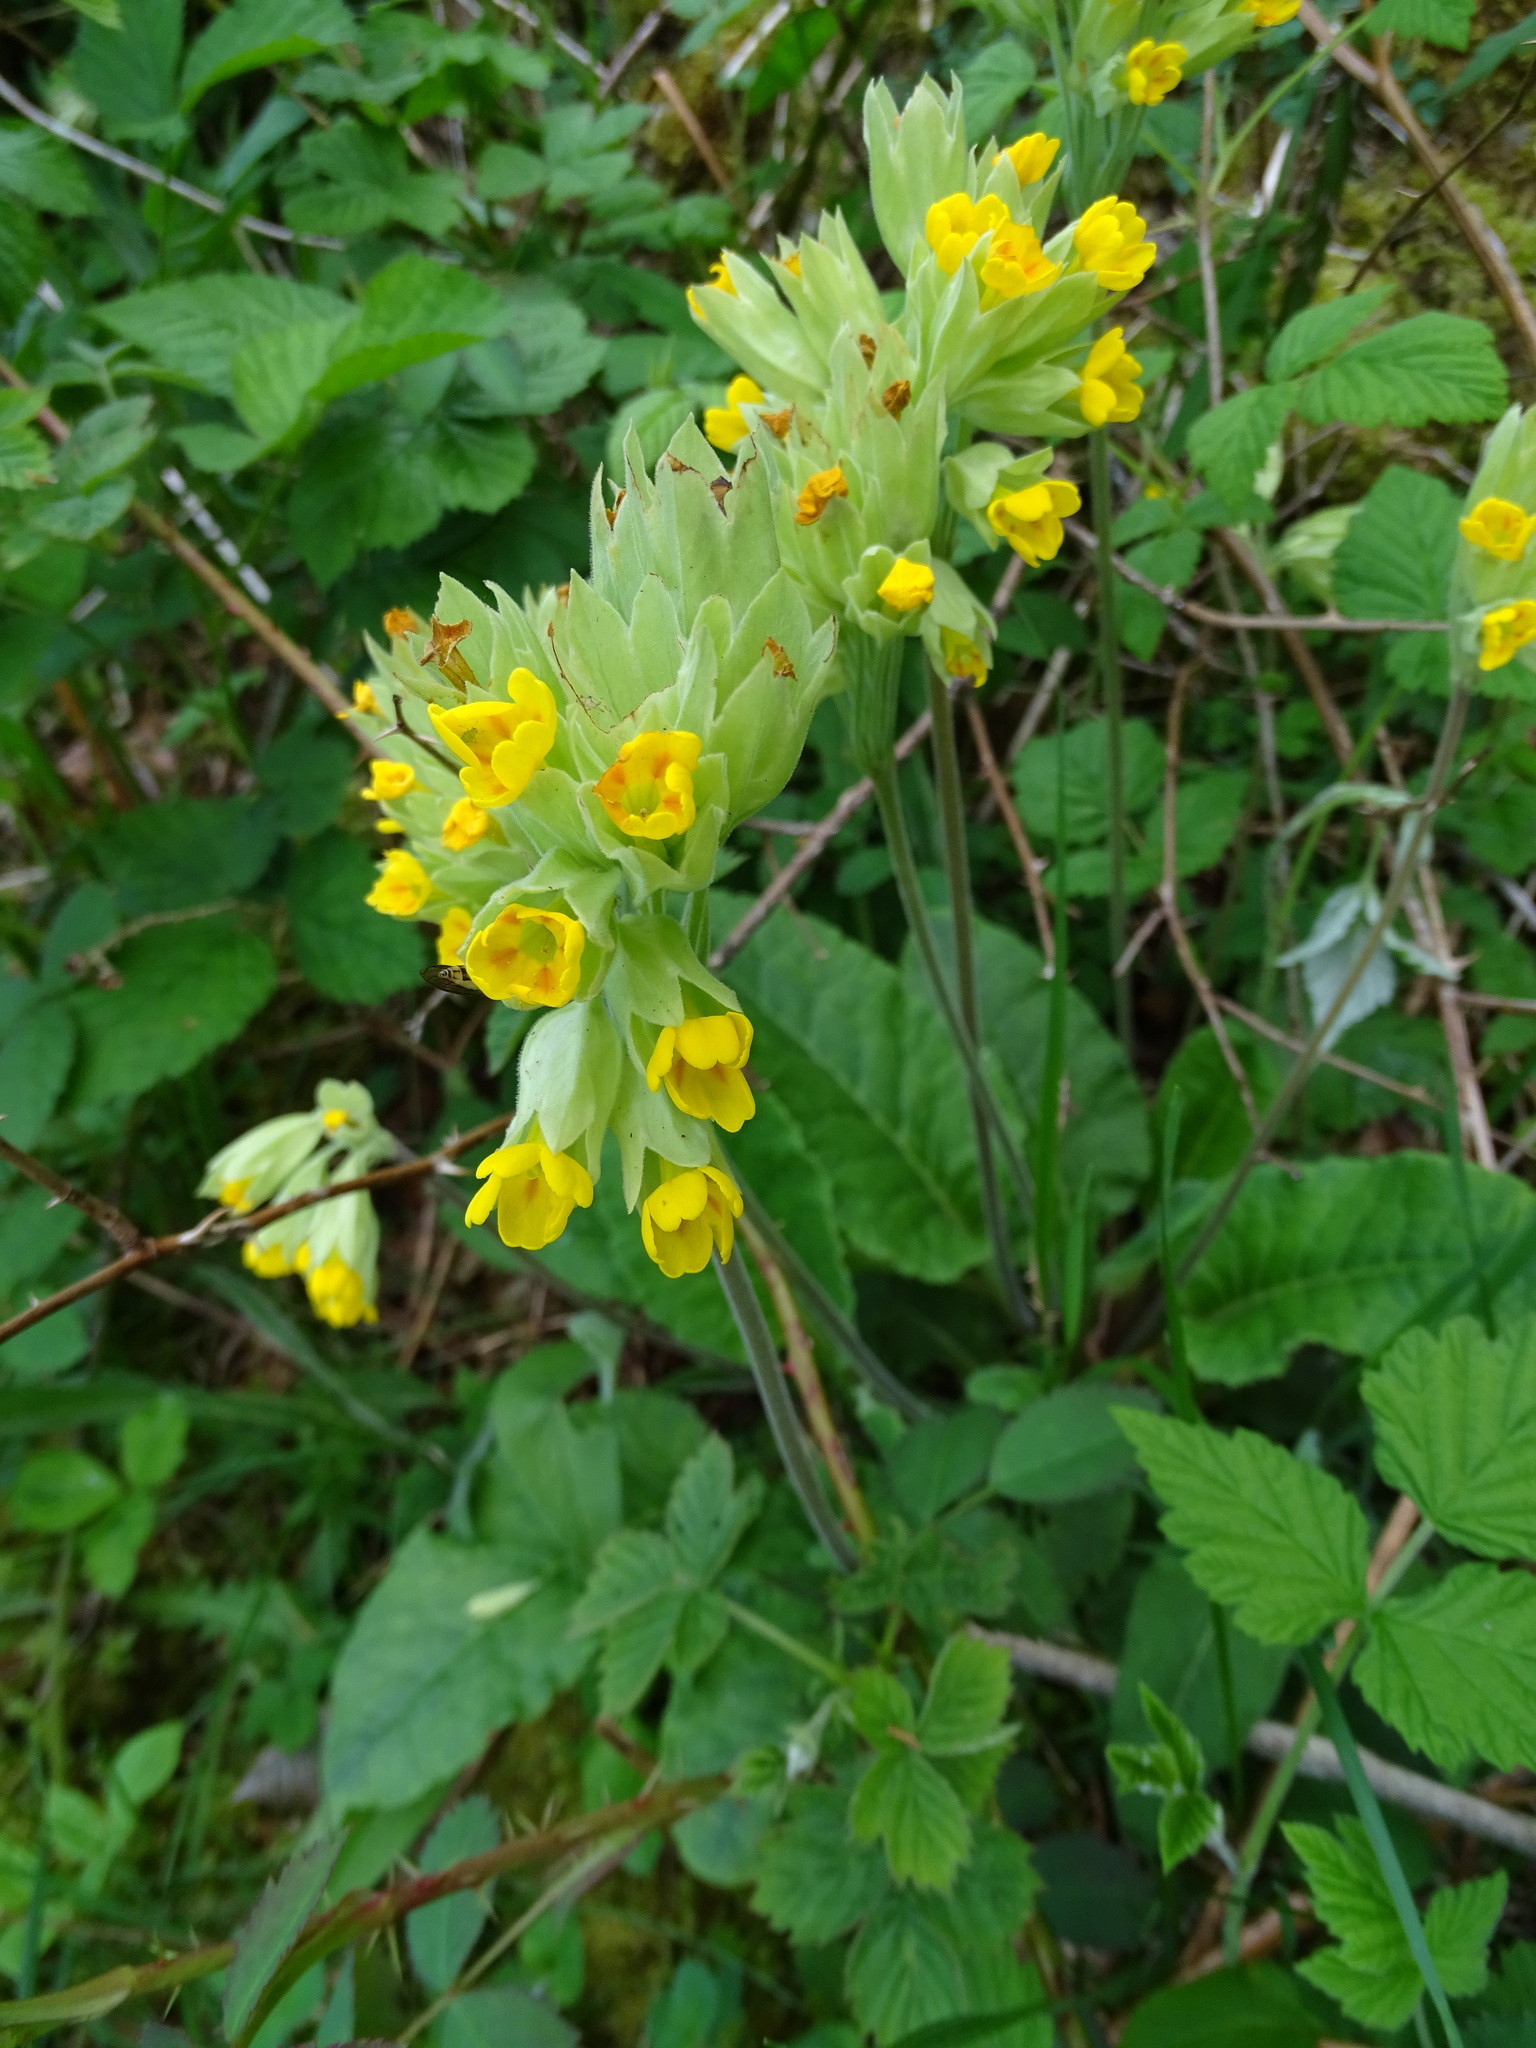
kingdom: Plantae
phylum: Tracheophyta
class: Magnoliopsida
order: Ericales
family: Primulaceae
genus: Primula
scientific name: Primula veris
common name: Cowslip
